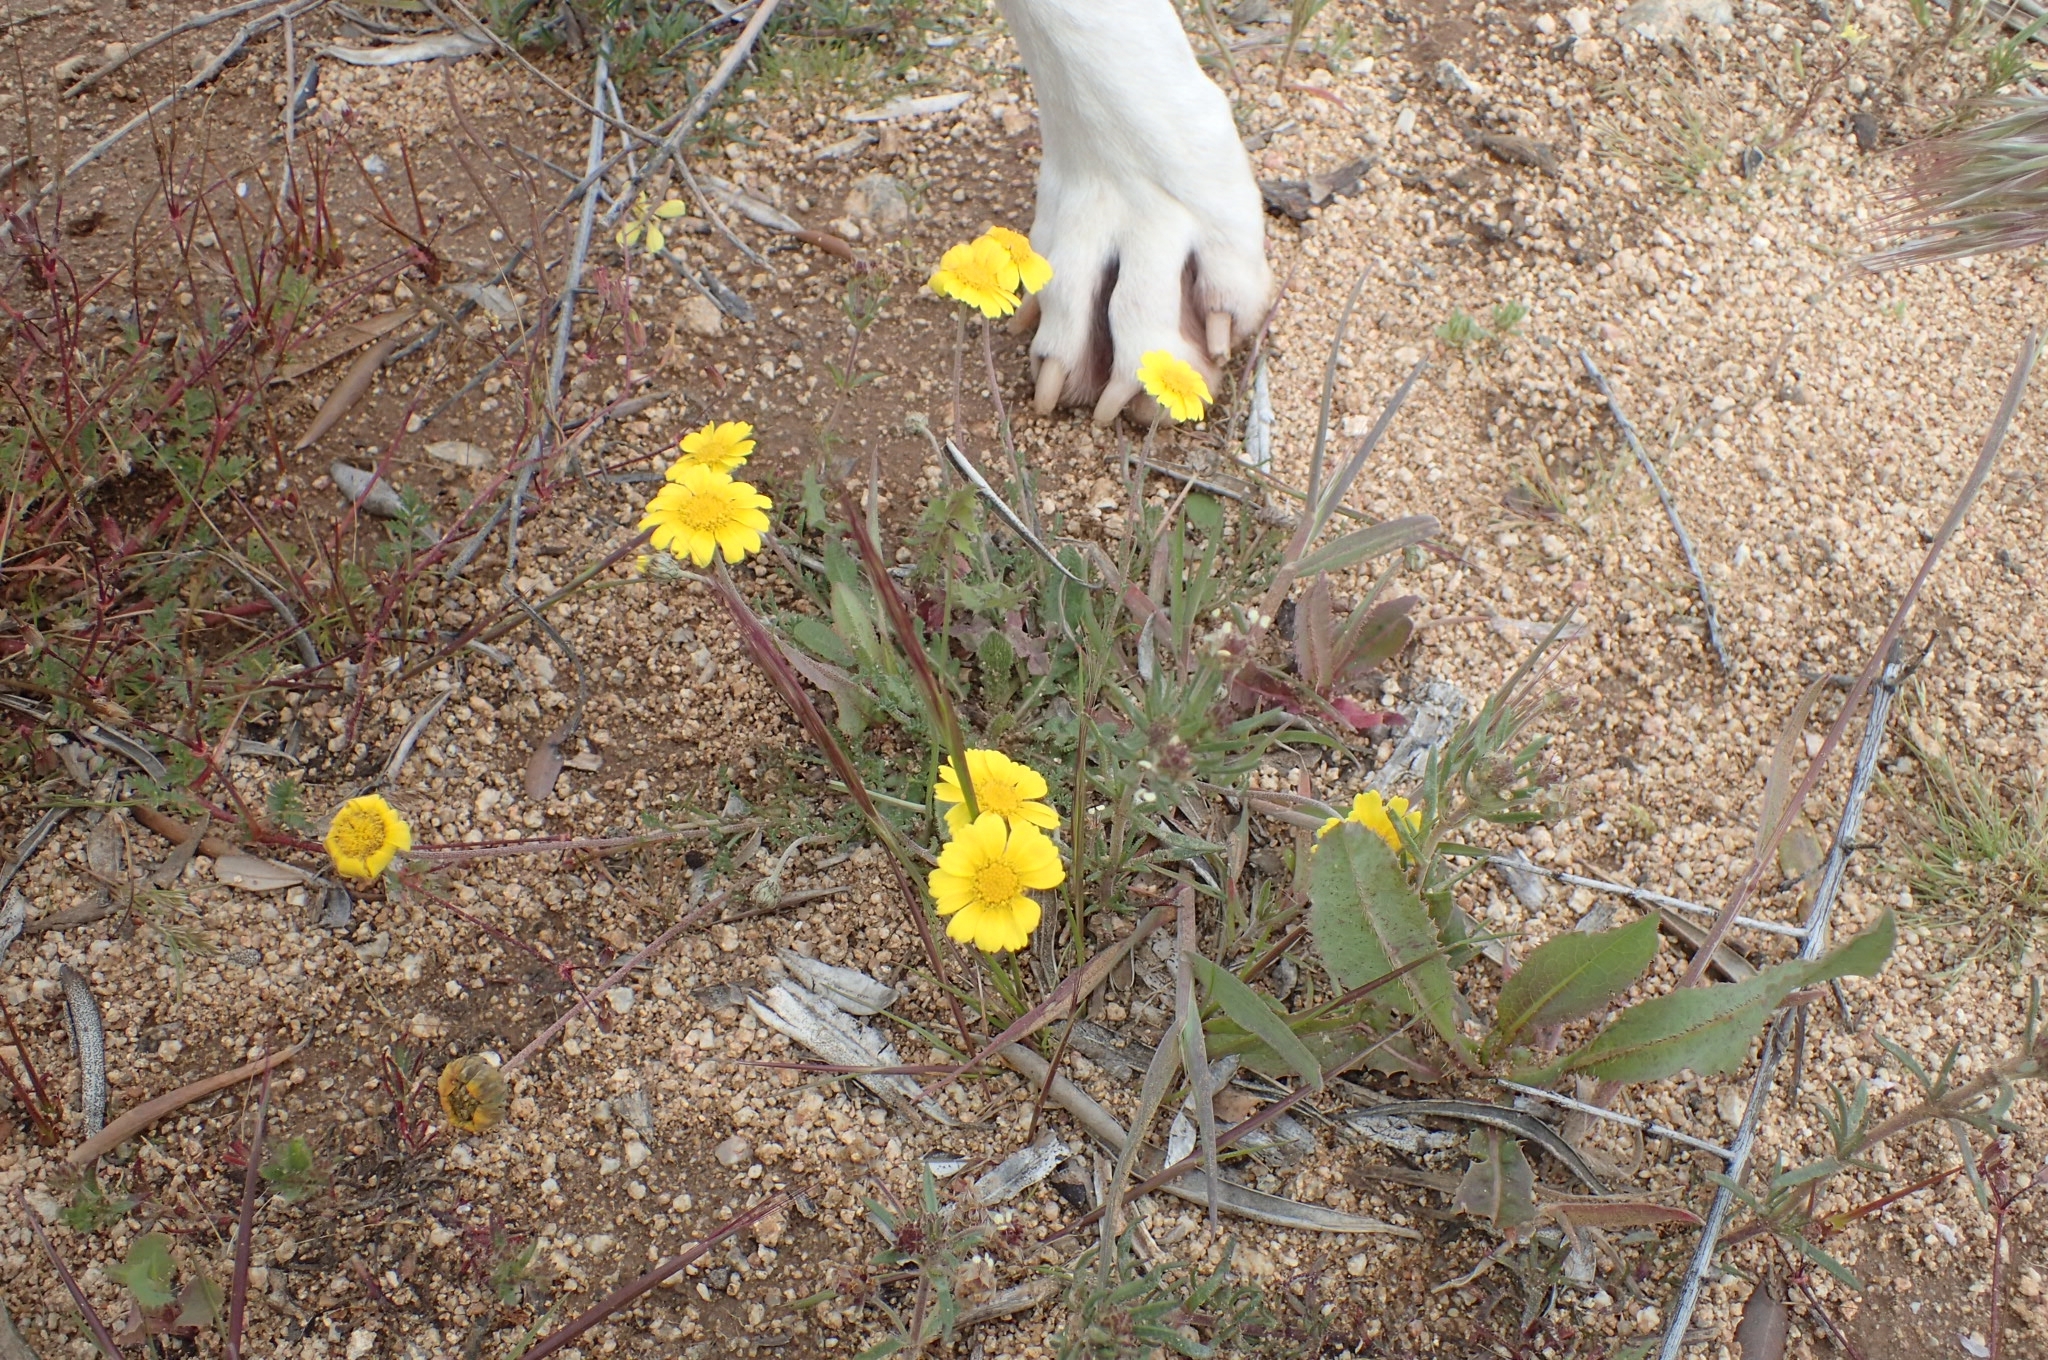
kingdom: Plantae
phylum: Tracheophyta
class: Magnoliopsida
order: Asterales
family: Asteraceae
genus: Prolongoa
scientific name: Prolongoa hispanica
